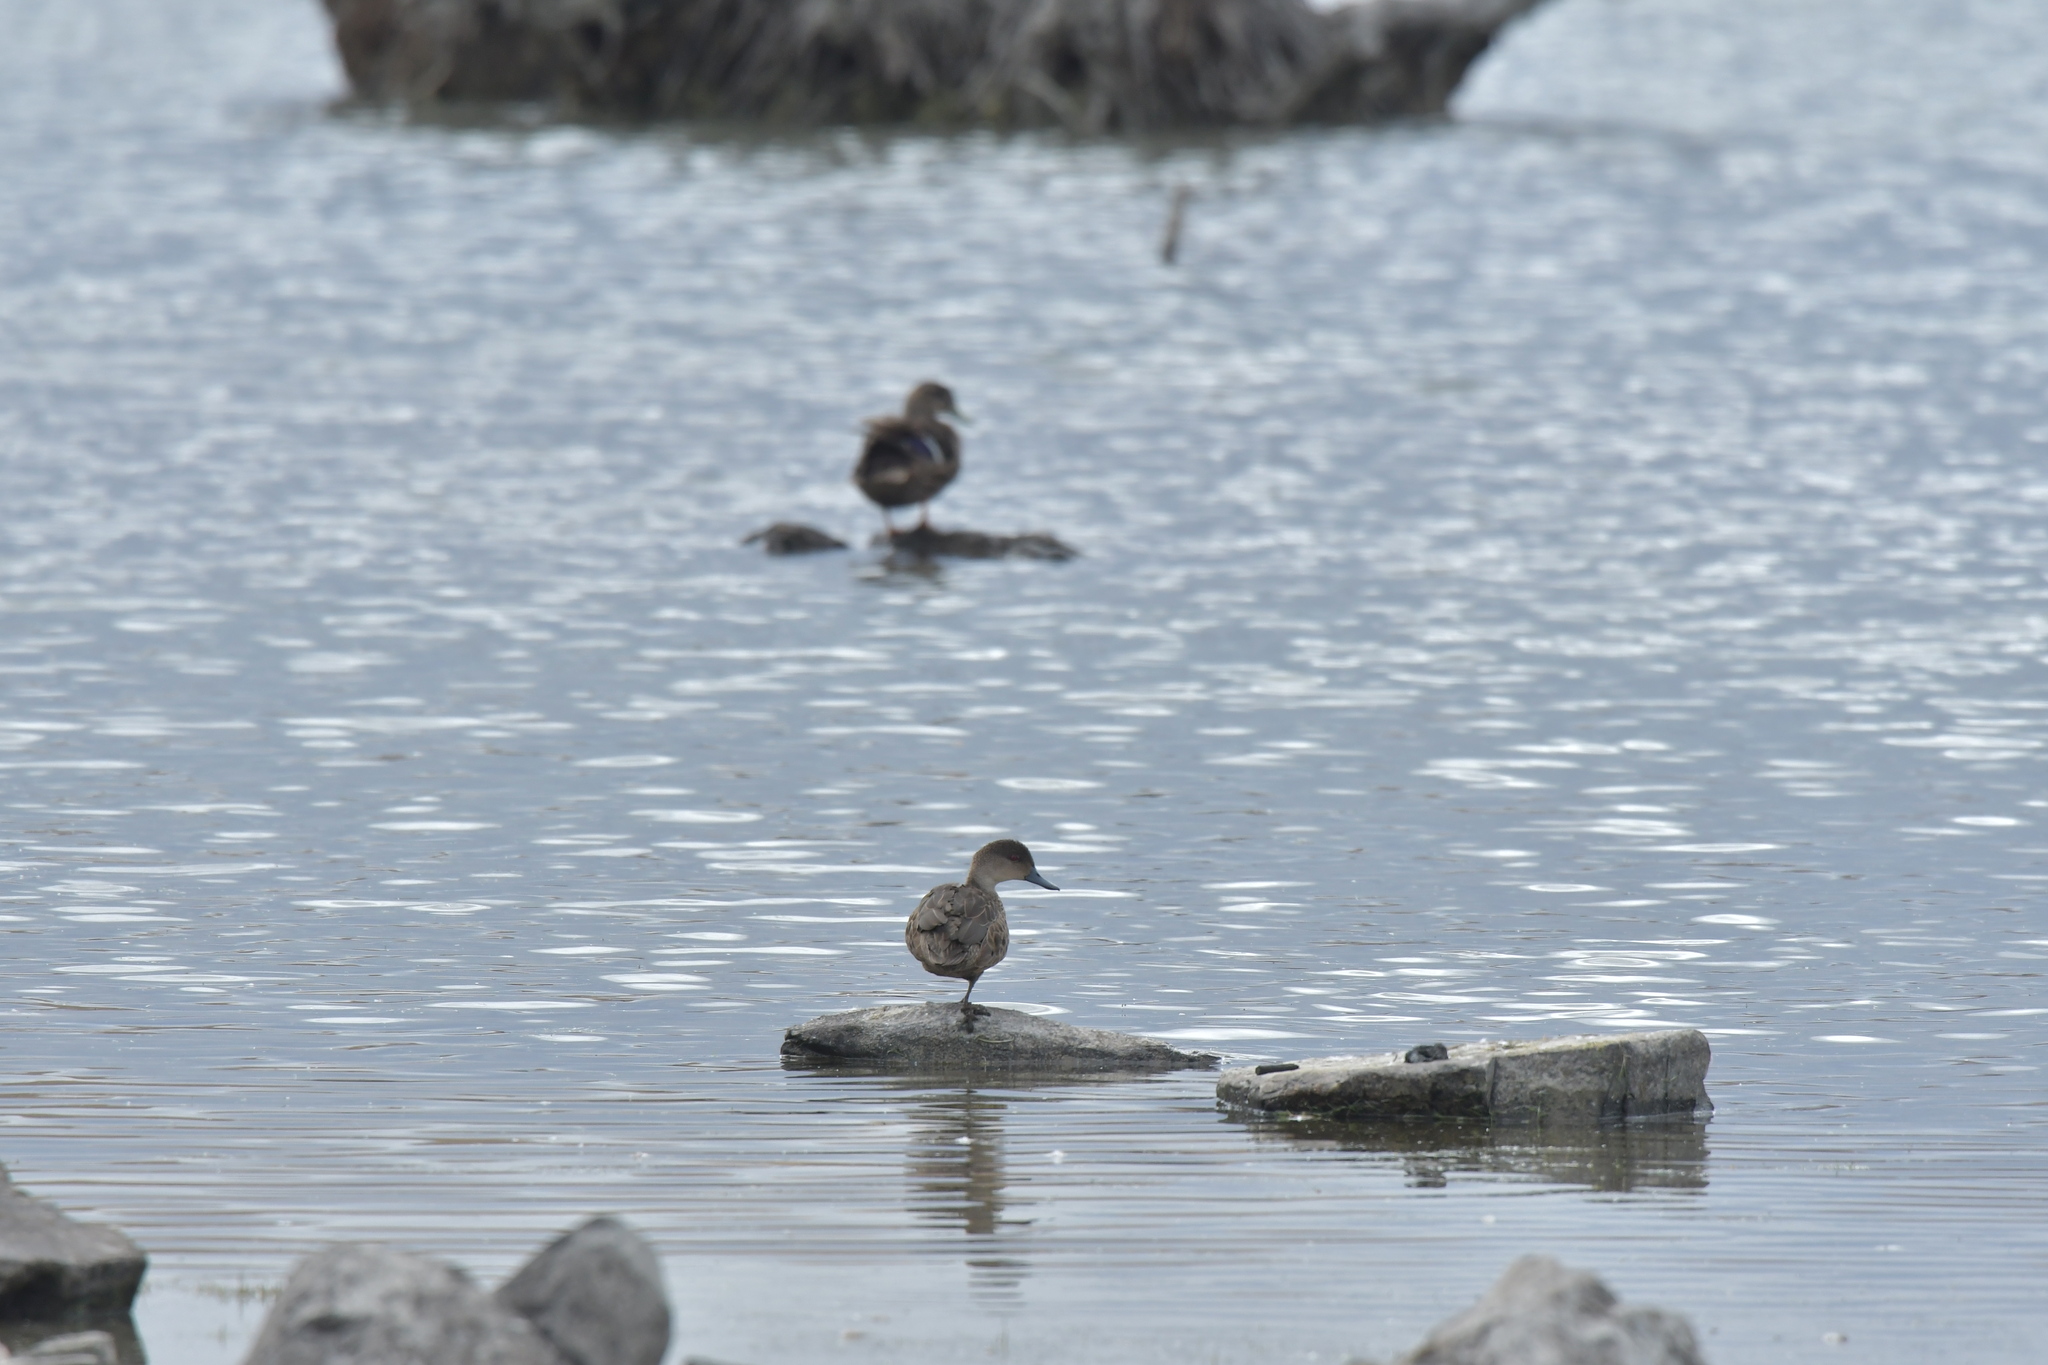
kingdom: Animalia
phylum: Chordata
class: Aves
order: Anseriformes
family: Anatidae
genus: Anas
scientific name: Anas gracilis
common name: Grey teal
